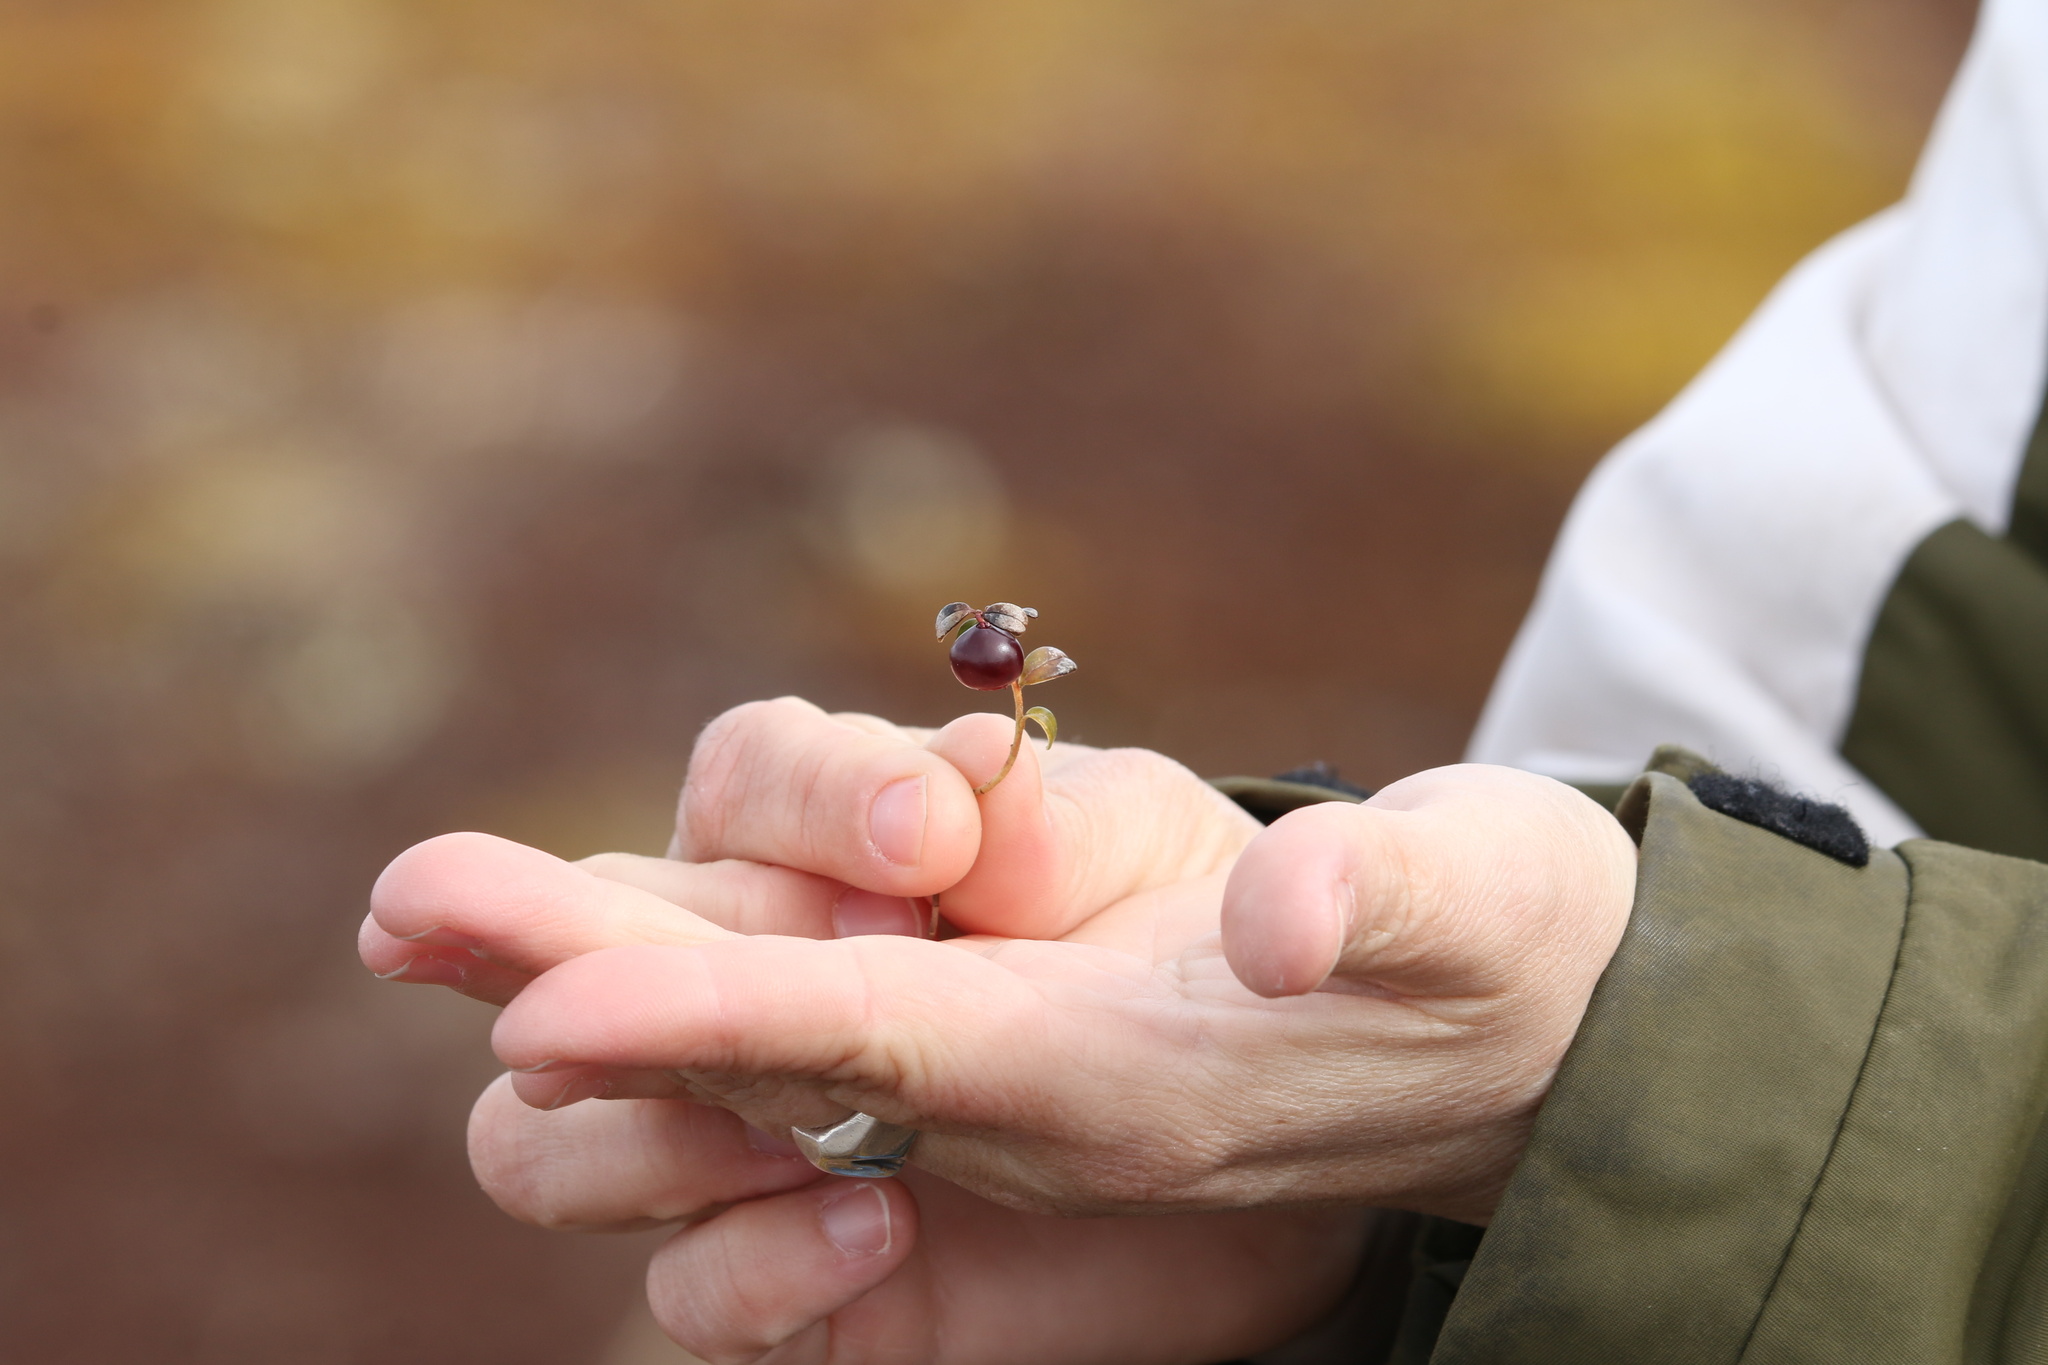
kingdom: Plantae
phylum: Tracheophyta
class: Magnoliopsida
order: Ericales
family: Ericaceae
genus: Vaccinium
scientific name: Vaccinium vitis-idaea
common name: Cowberry
